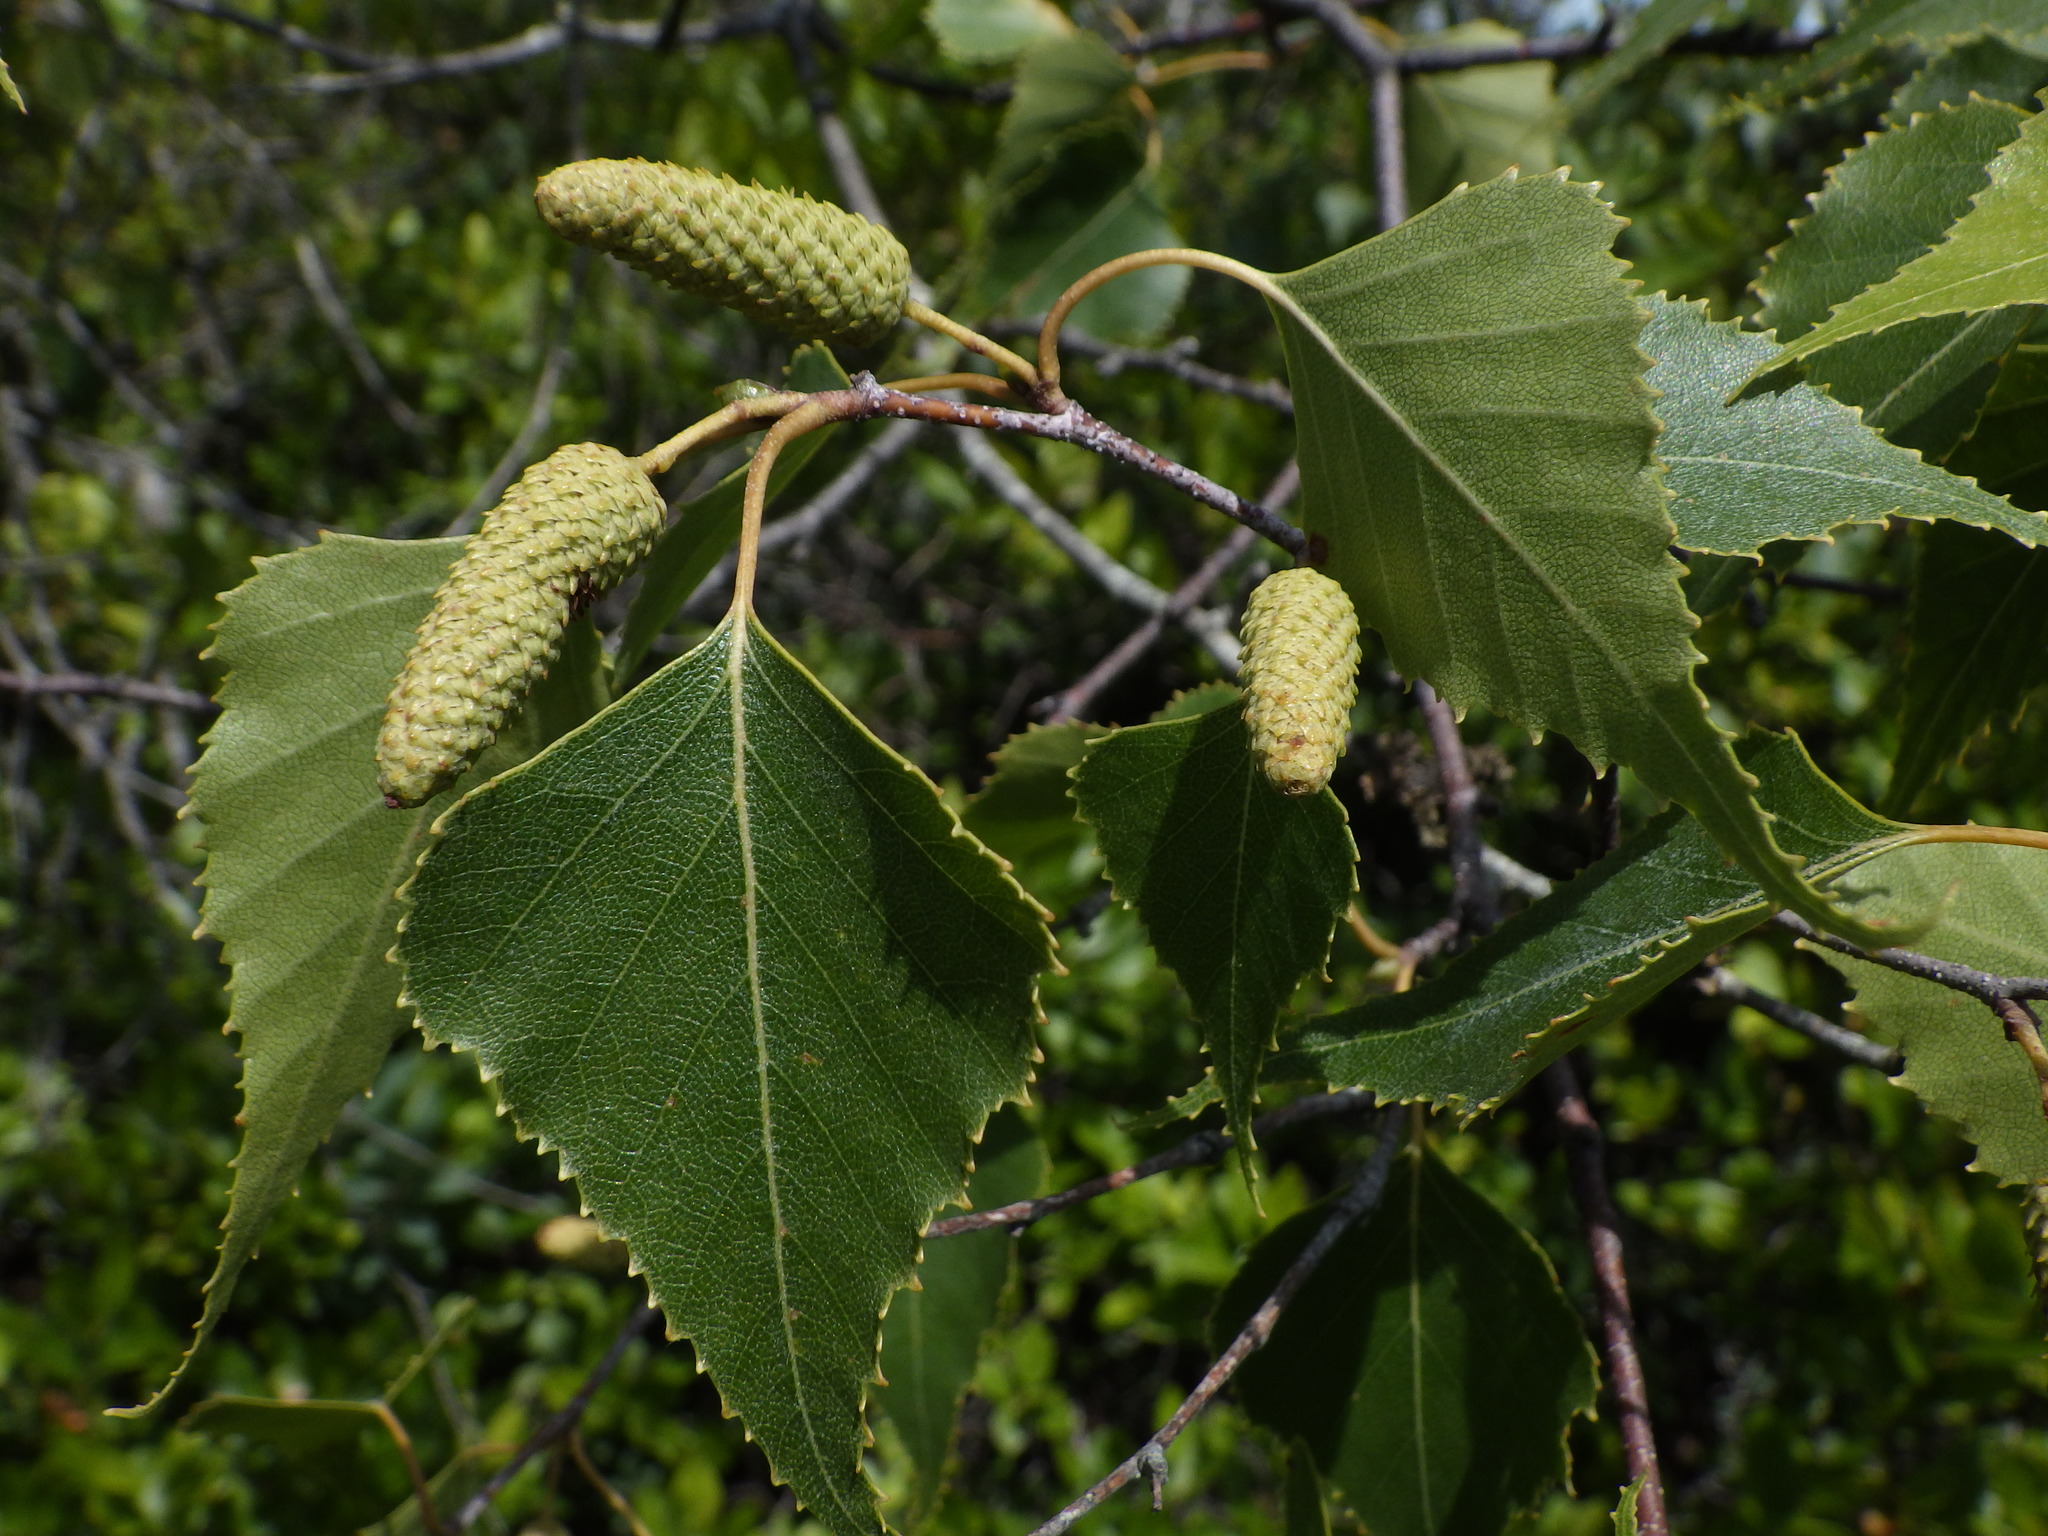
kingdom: Plantae
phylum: Tracheophyta
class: Magnoliopsida
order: Fagales
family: Betulaceae
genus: Betula
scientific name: Betula populifolia
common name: Fire birch
